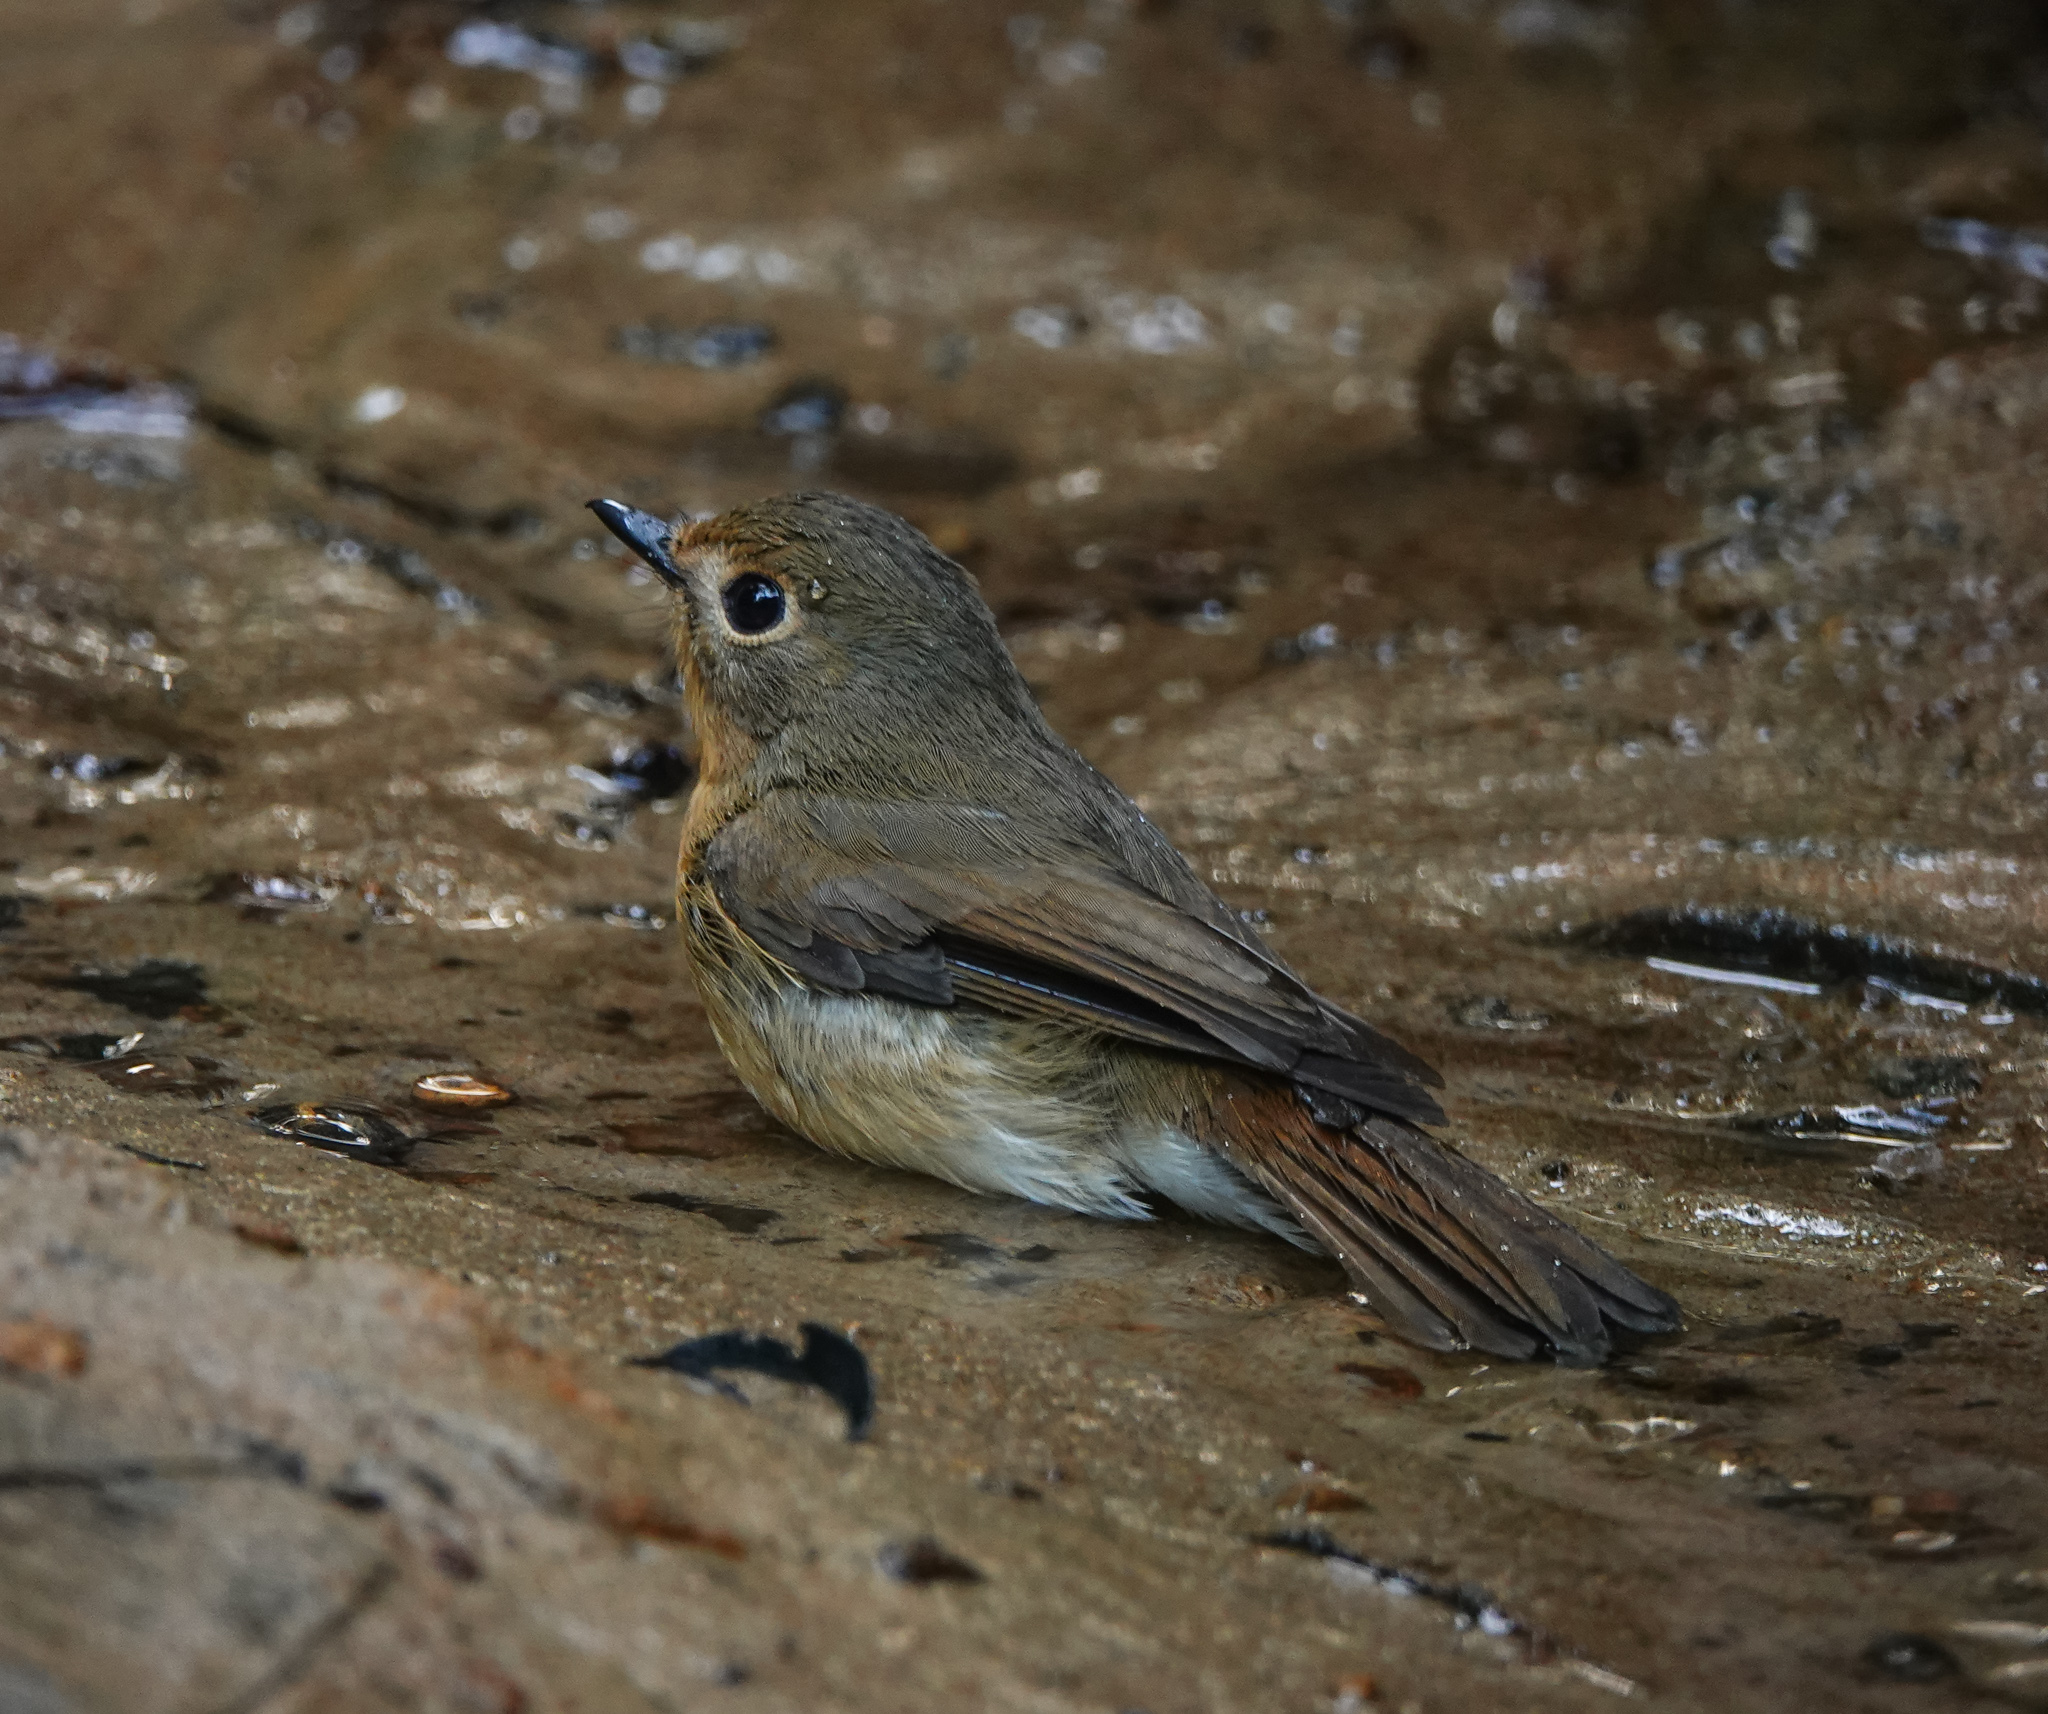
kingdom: Animalia
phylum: Chordata
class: Aves
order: Passeriformes
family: Muscicapidae
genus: Cyornis
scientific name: Cyornis whitei
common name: Hill blue flycatcher
